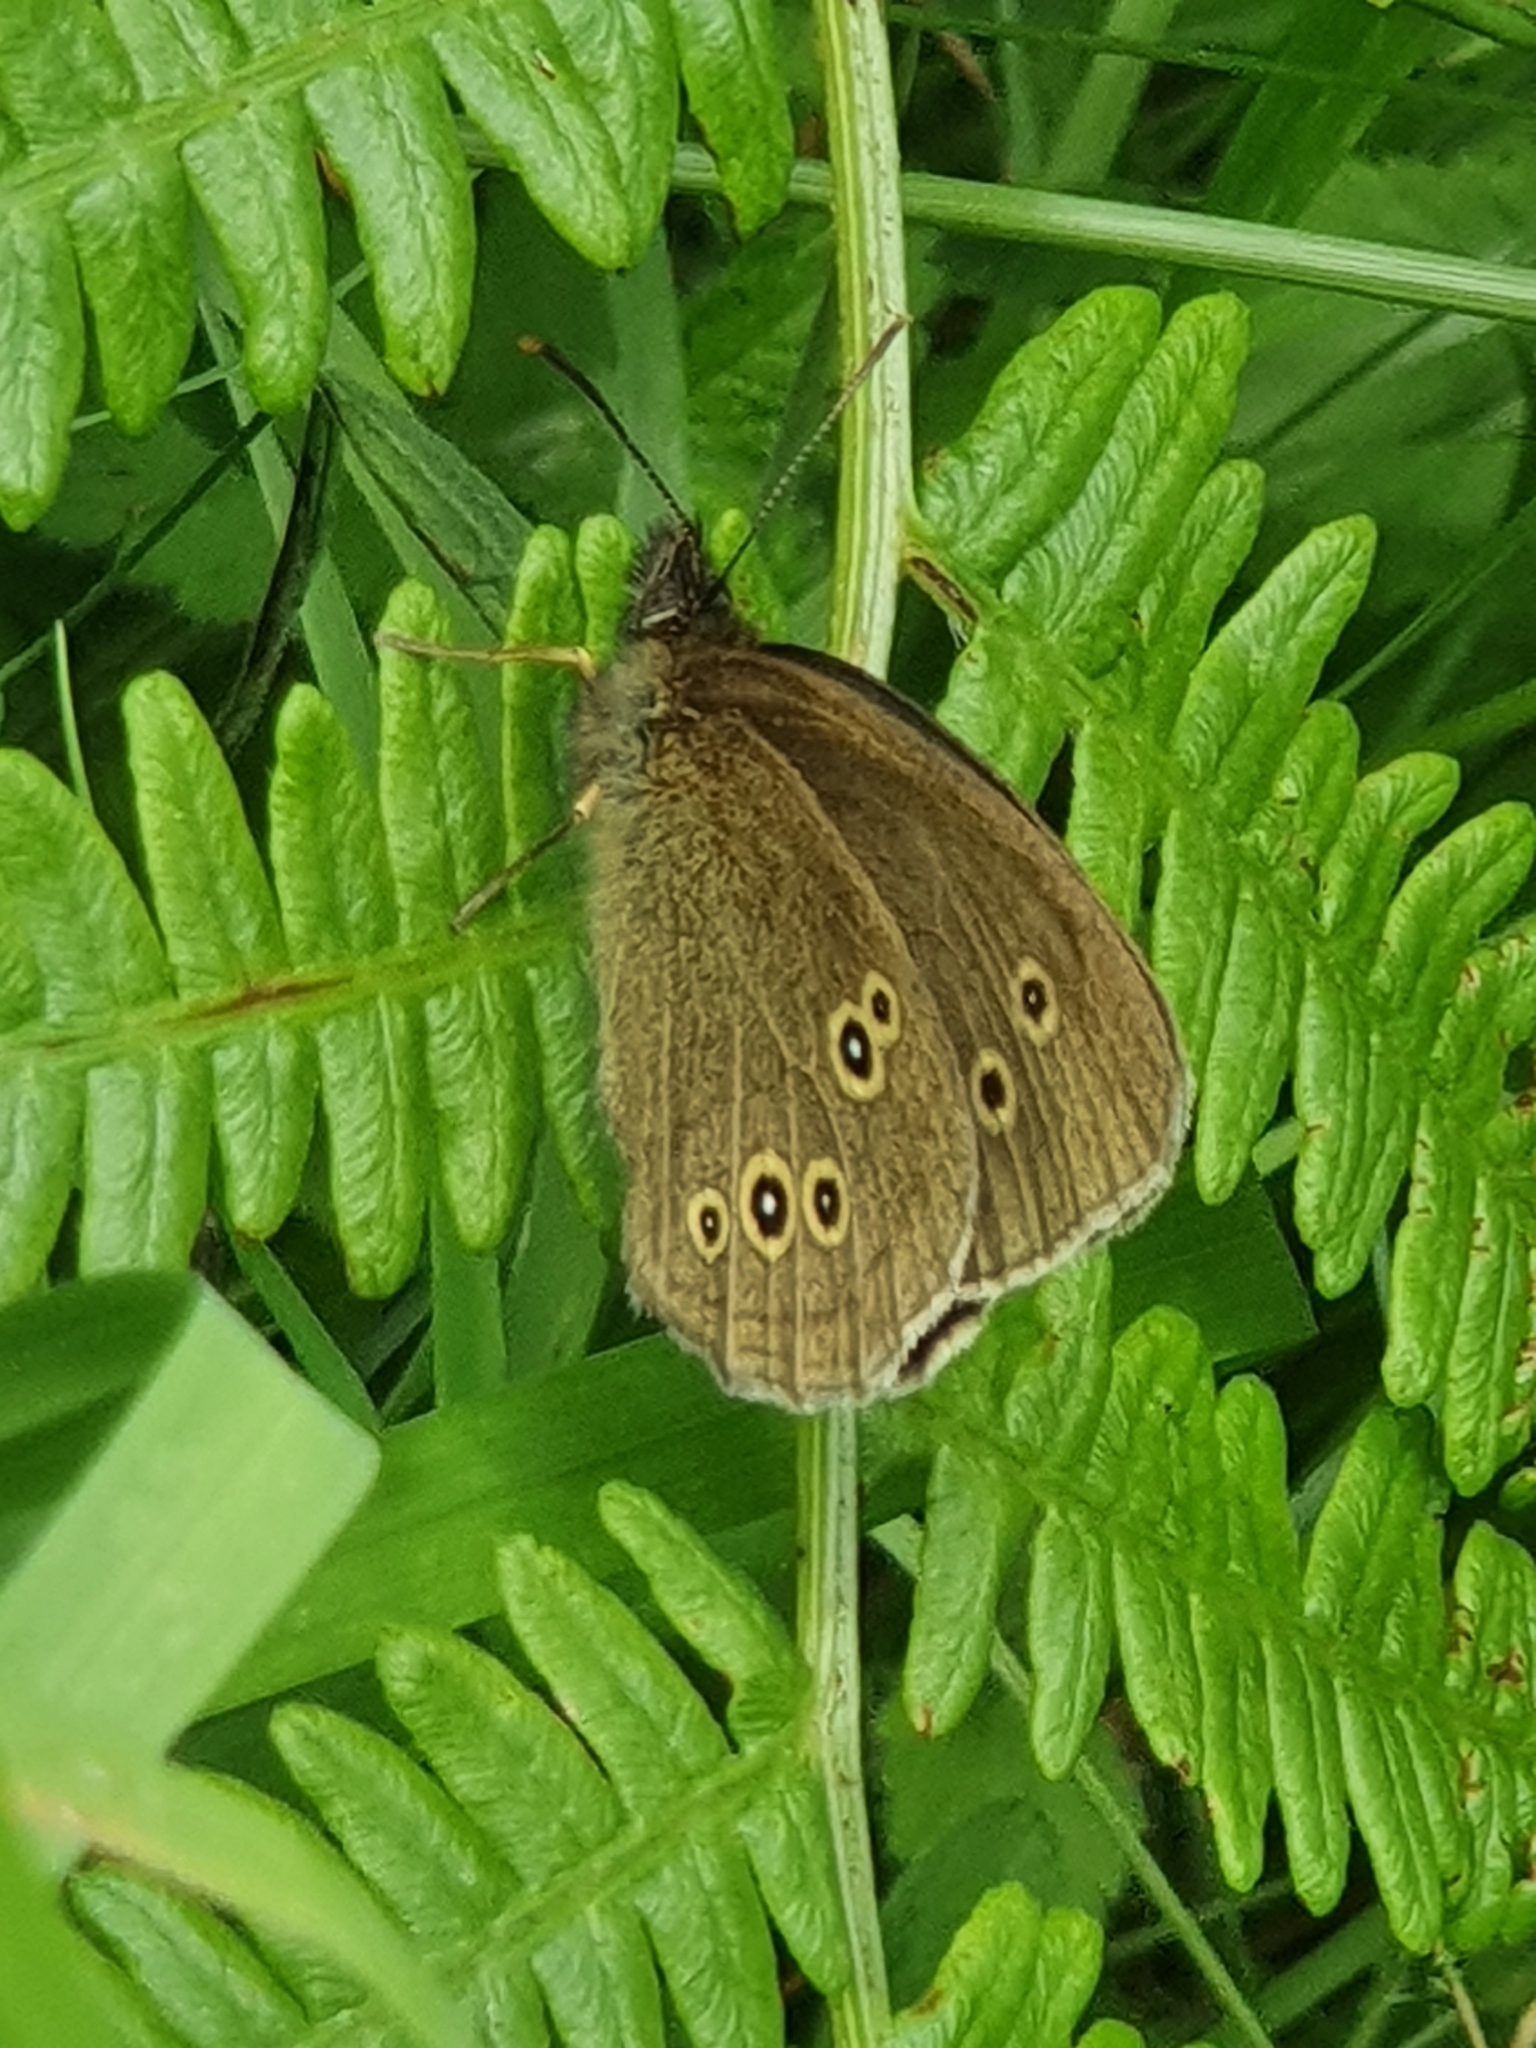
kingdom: Animalia
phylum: Arthropoda
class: Insecta
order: Lepidoptera
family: Nymphalidae
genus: Aphantopus
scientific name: Aphantopus hyperantus
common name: Ringlet
